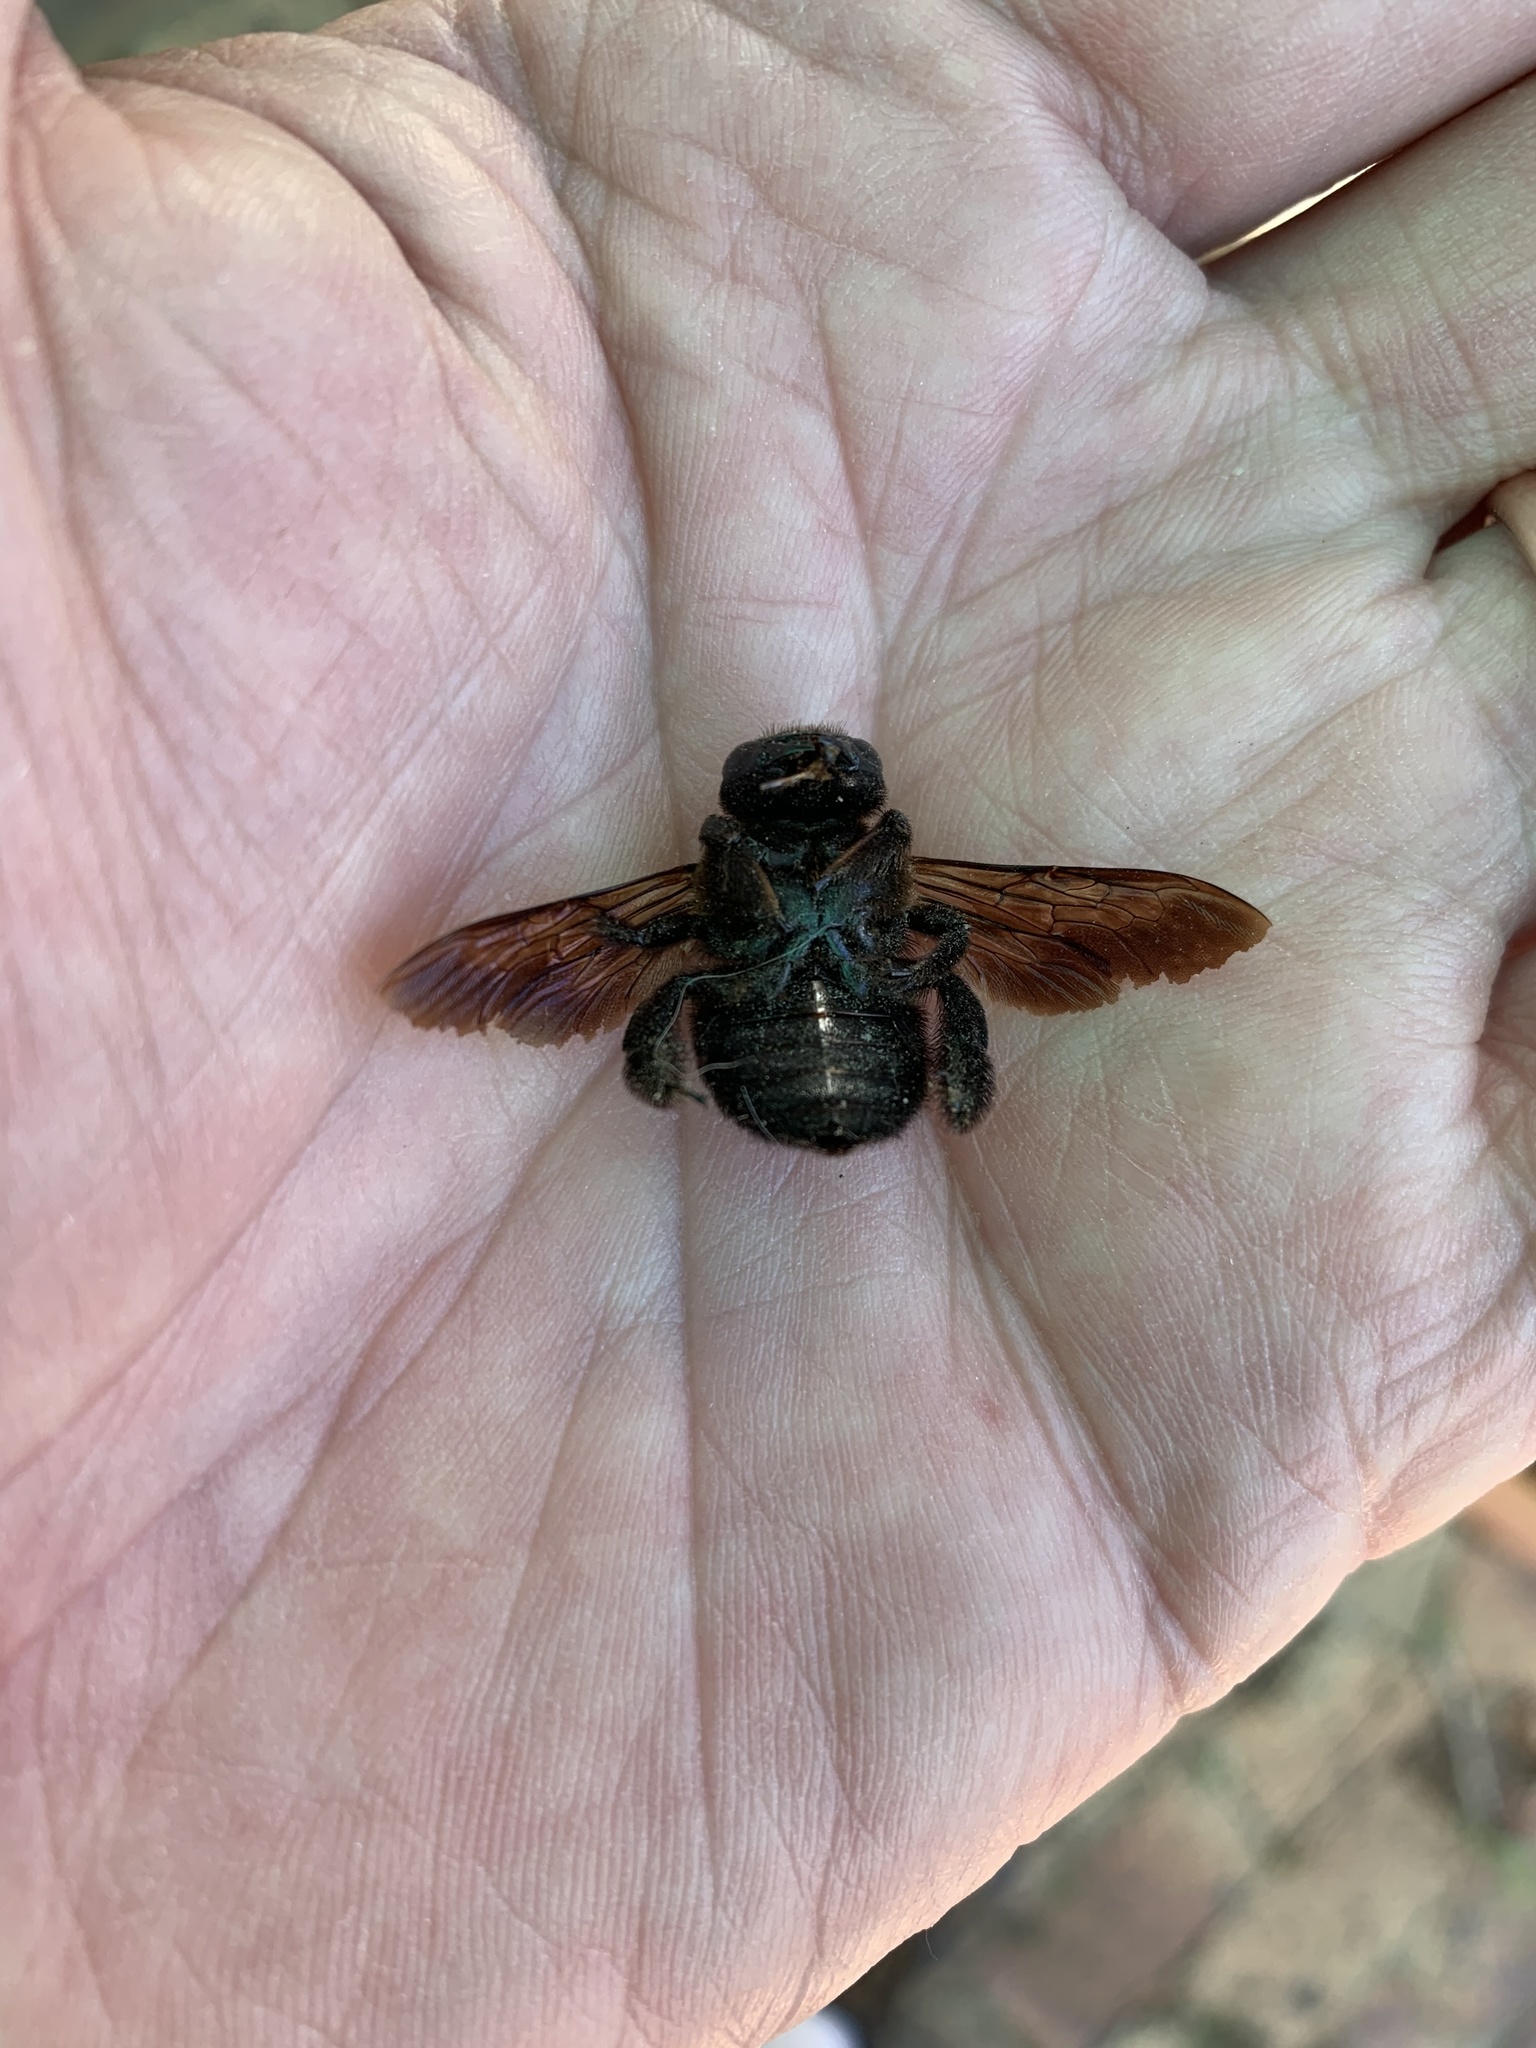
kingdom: Animalia
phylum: Arthropoda
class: Insecta
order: Hymenoptera
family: Apidae
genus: Xylocopa
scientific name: Xylocopa caffra
